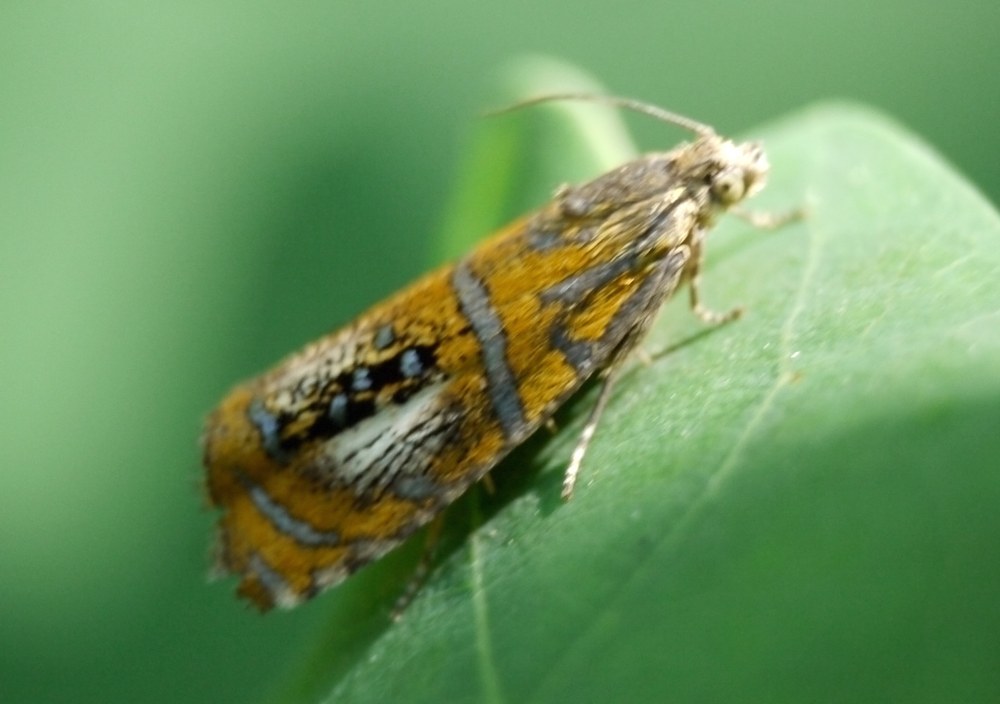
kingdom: Animalia
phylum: Arthropoda
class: Insecta
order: Lepidoptera
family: Tortricidae
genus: Olethreutes
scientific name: Olethreutes arcuella
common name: Arched marble
